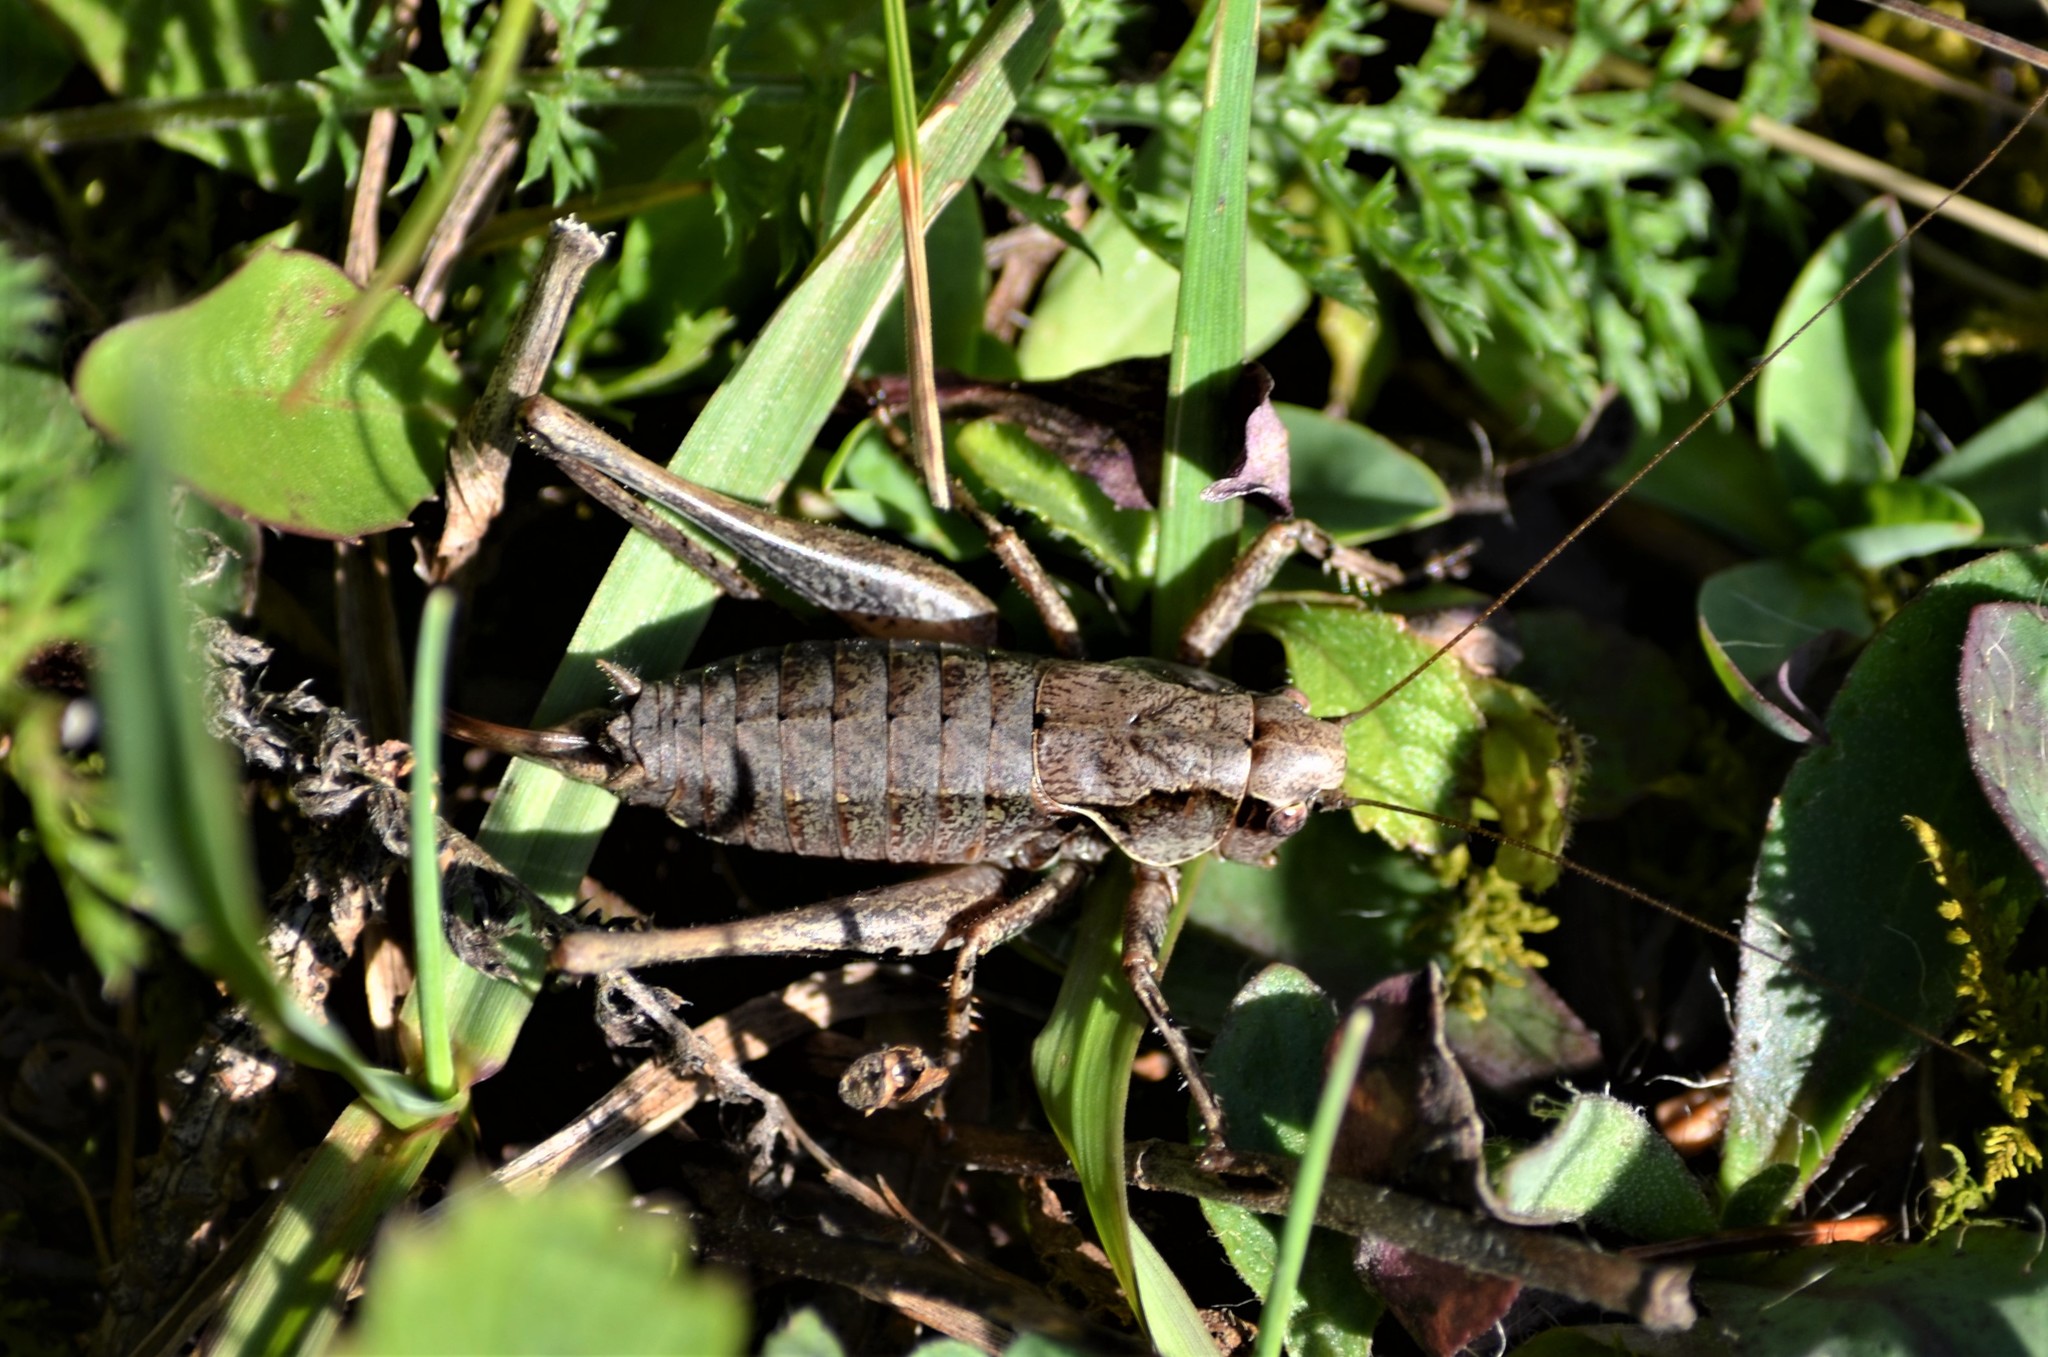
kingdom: Animalia
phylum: Arthropoda
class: Insecta
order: Orthoptera
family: Tettigoniidae
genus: Pholidoptera
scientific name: Pholidoptera griseoaptera
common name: Dark bush-cricket
